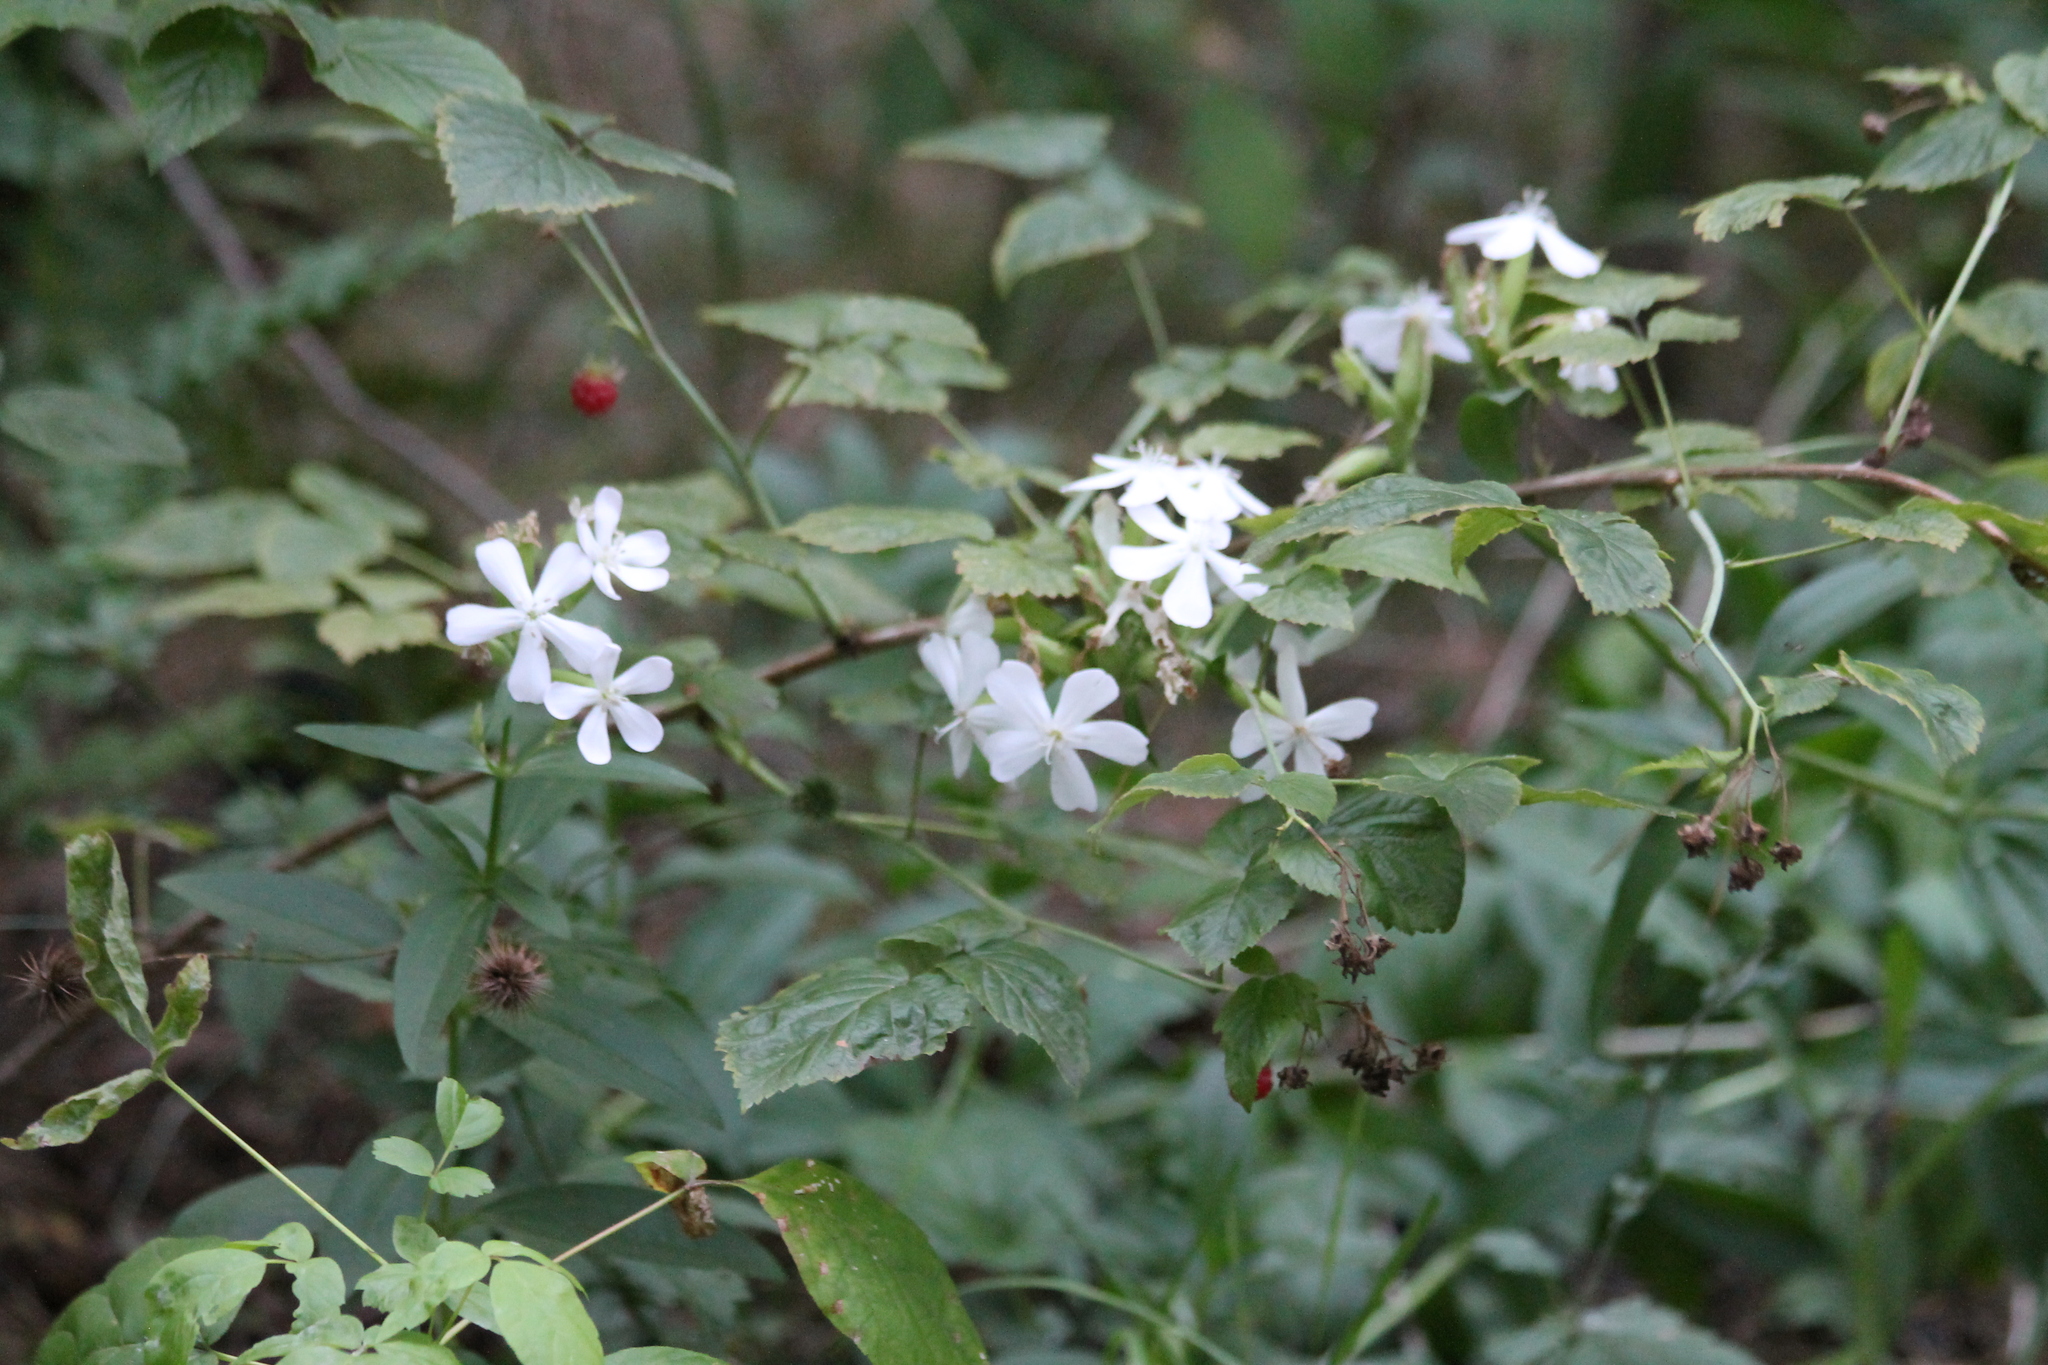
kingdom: Plantae
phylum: Tracheophyta
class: Magnoliopsida
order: Rosales
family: Rosaceae
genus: Rubus
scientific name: Rubus idaeus
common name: Raspberry
